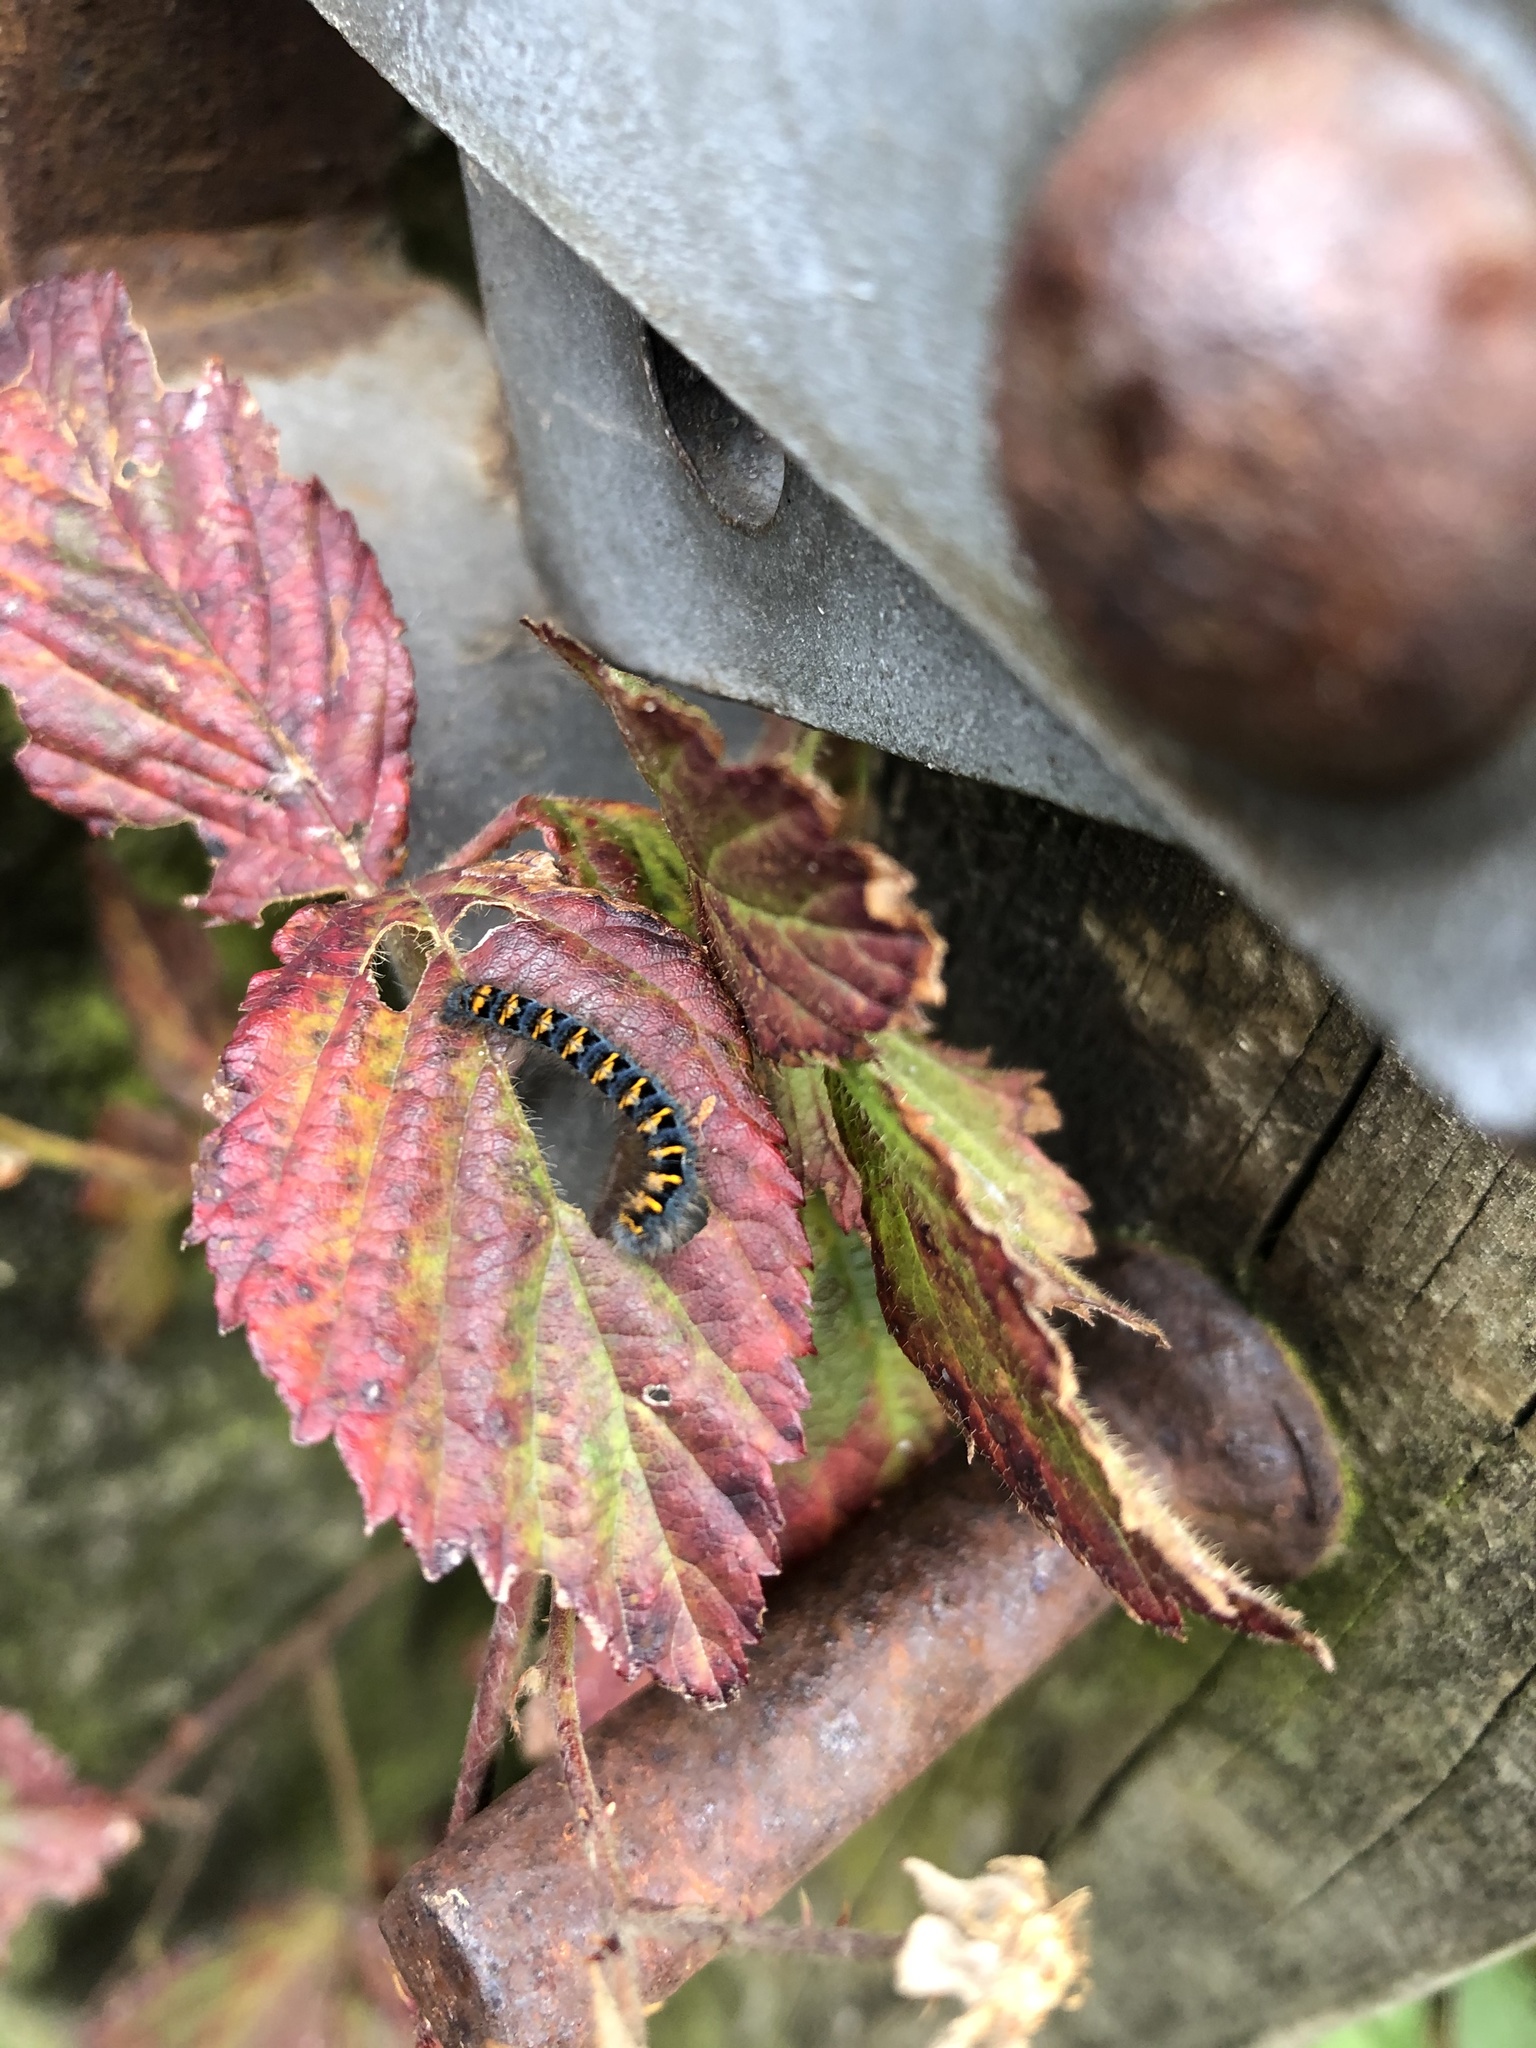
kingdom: Animalia
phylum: Arthropoda
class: Insecta
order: Lepidoptera
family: Lasiocampidae
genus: Lasiocampa
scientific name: Lasiocampa quercus
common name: Oak eggar
